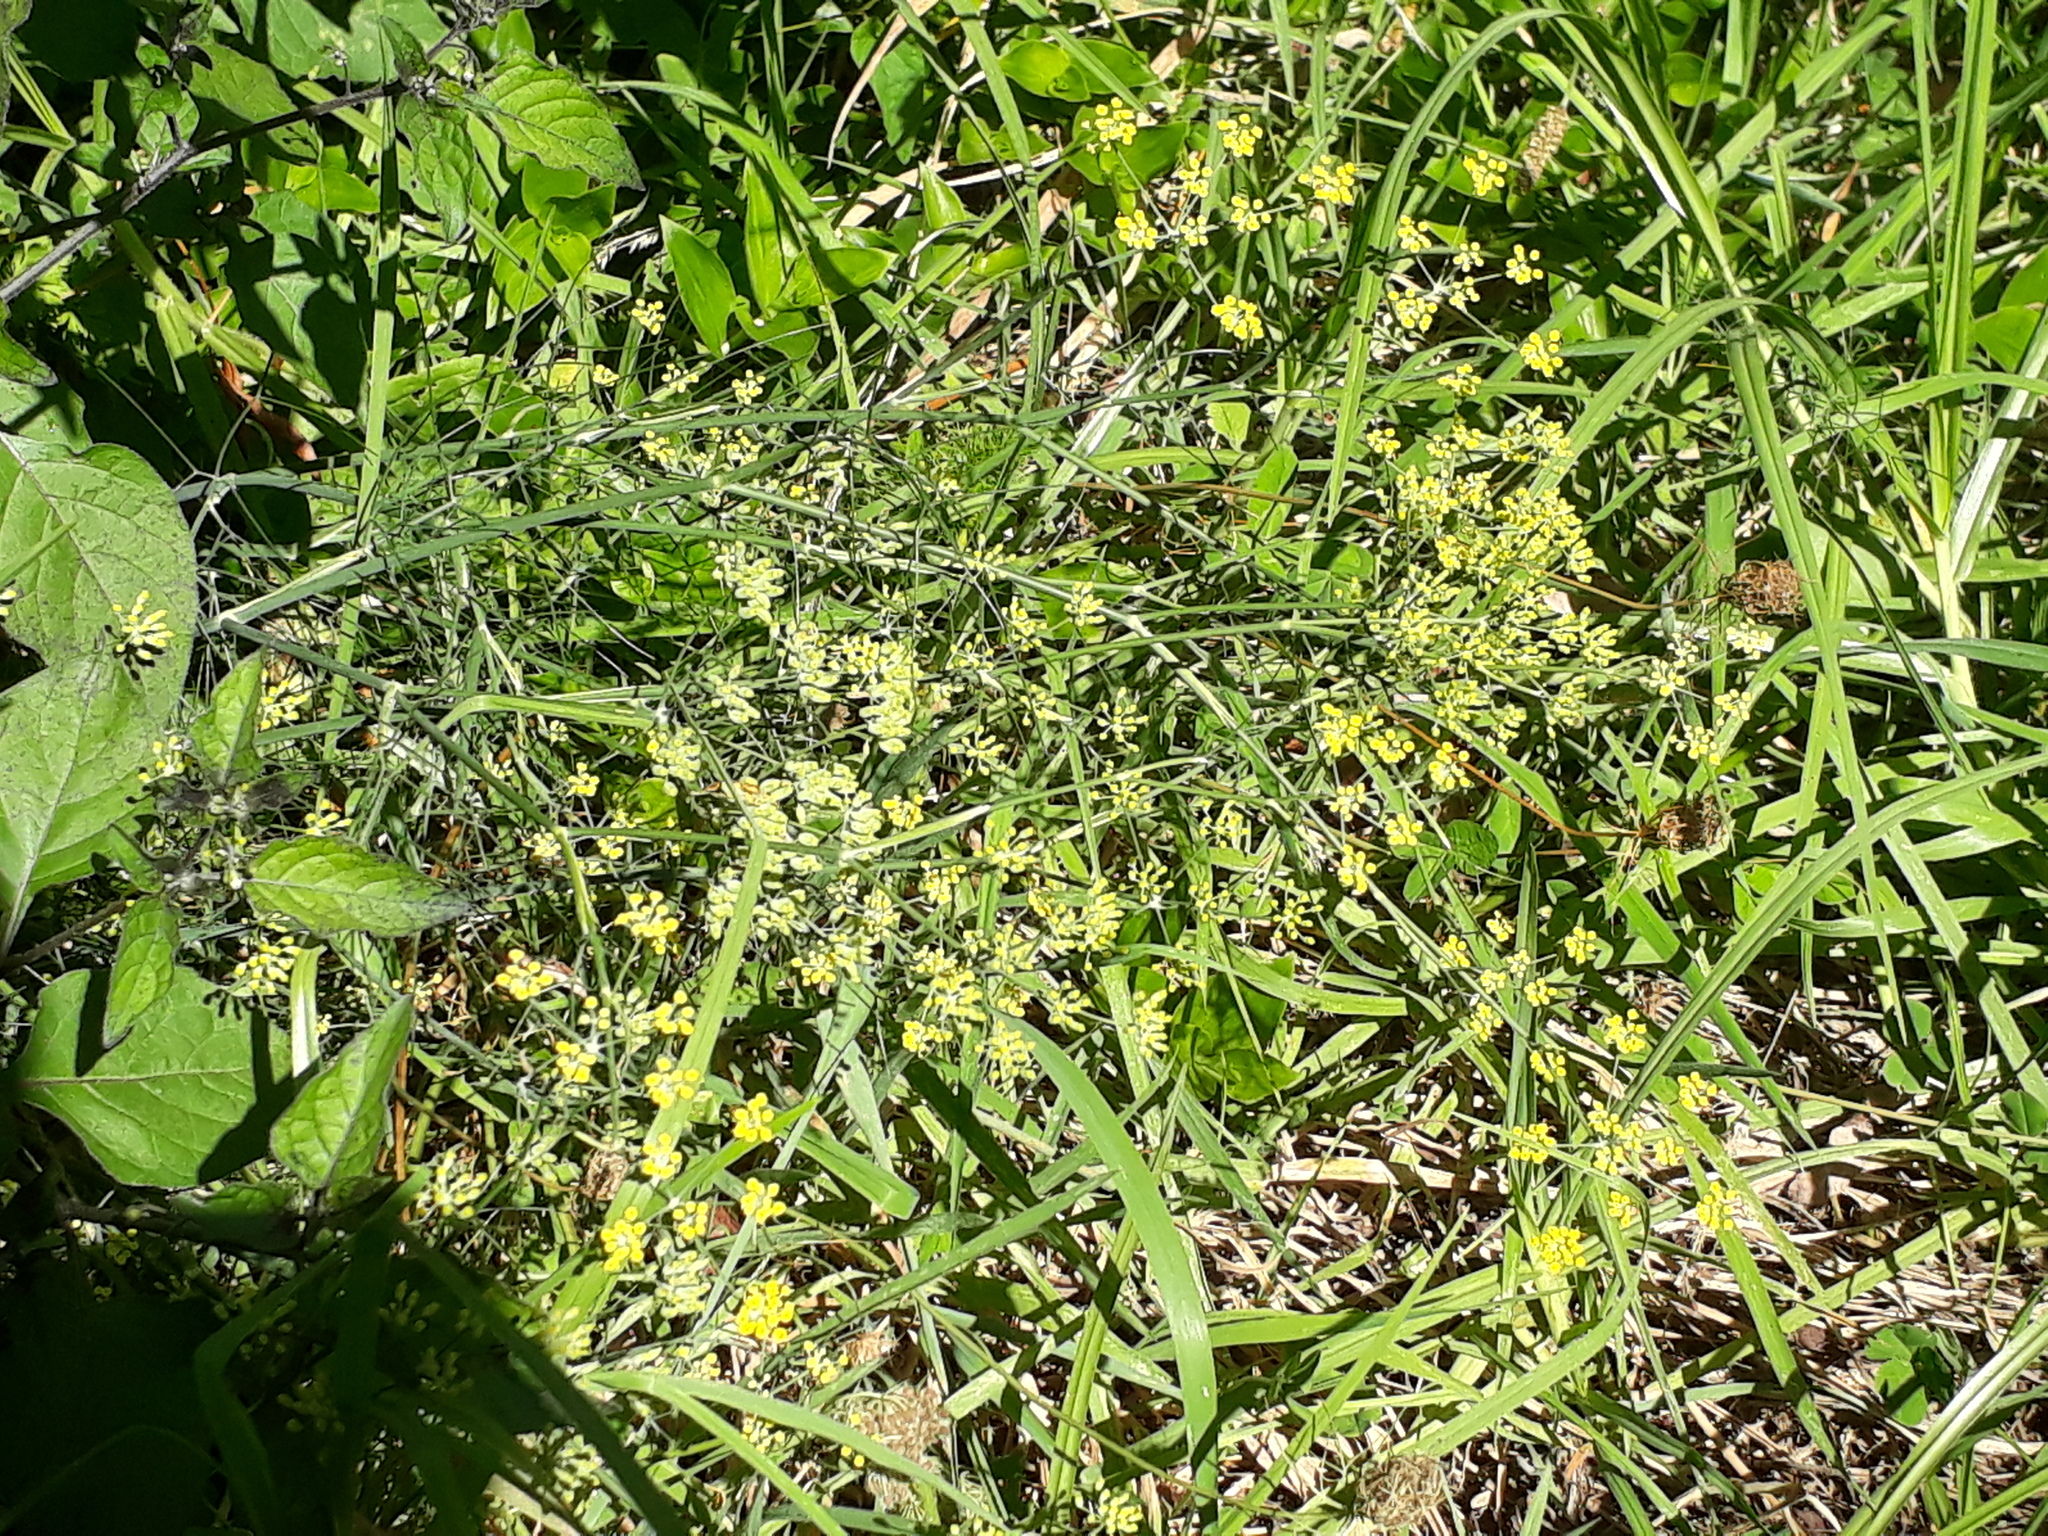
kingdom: Plantae
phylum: Tracheophyta
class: Magnoliopsida
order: Apiales
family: Apiaceae
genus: Foeniculum
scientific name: Foeniculum vulgare
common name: Fennel
